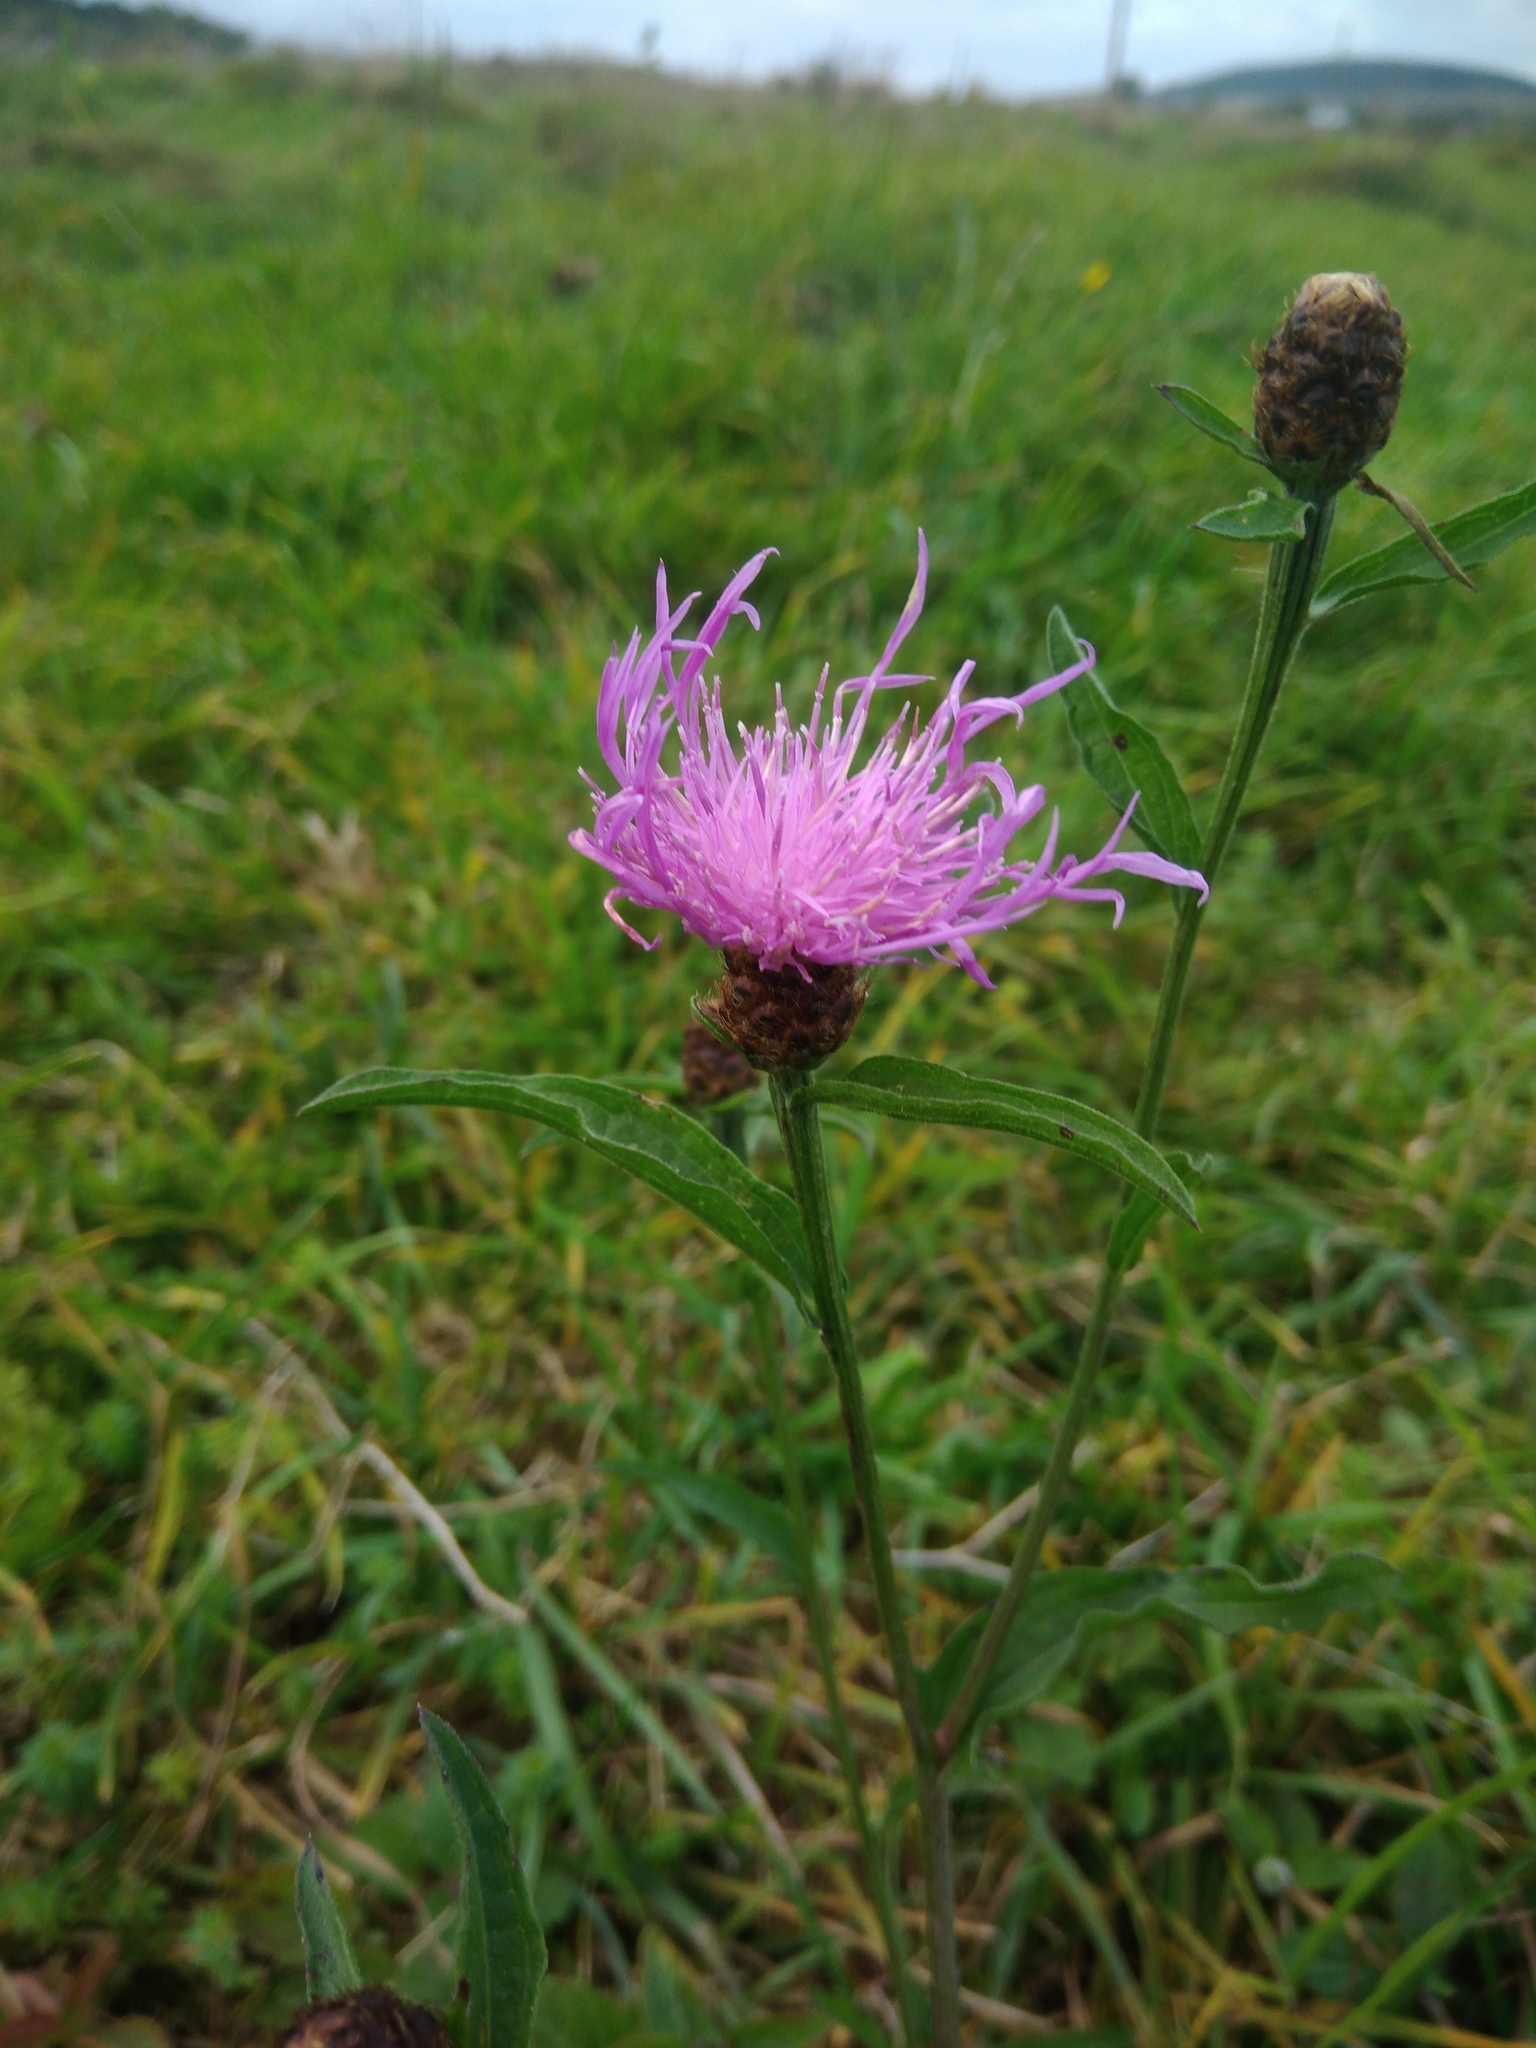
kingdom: Plantae
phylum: Tracheophyta
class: Magnoliopsida
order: Asterales
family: Asteraceae
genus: Centaurea
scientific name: Centaurea jacea
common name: Brown knapweed
